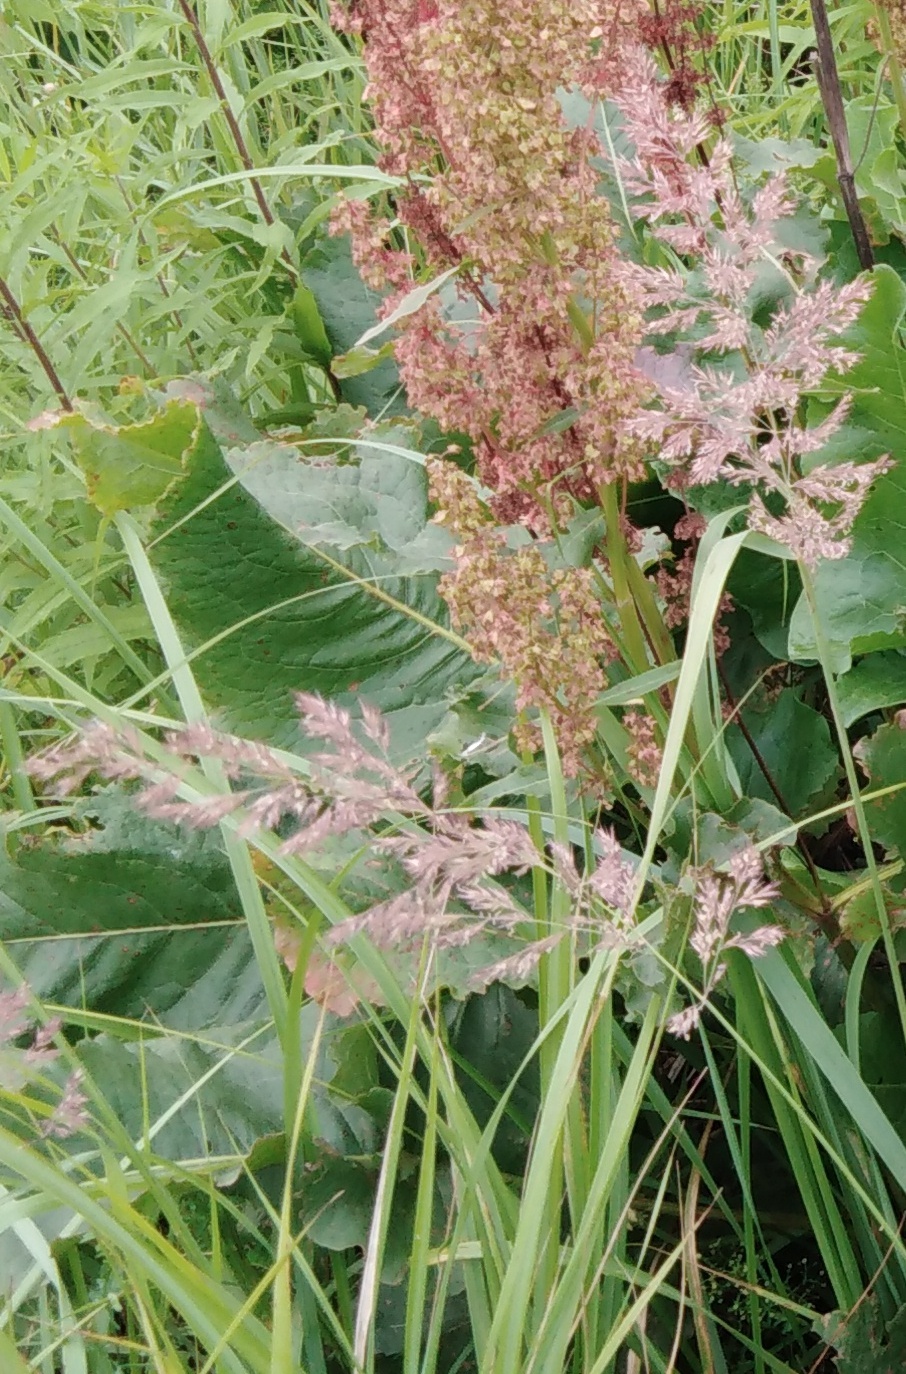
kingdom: Plantae
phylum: Tracheophyta
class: Liliopsida
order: Poales
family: Poaceae
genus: Calamagrostis
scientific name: Calamagrostis epigejos
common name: Wood small-reed
